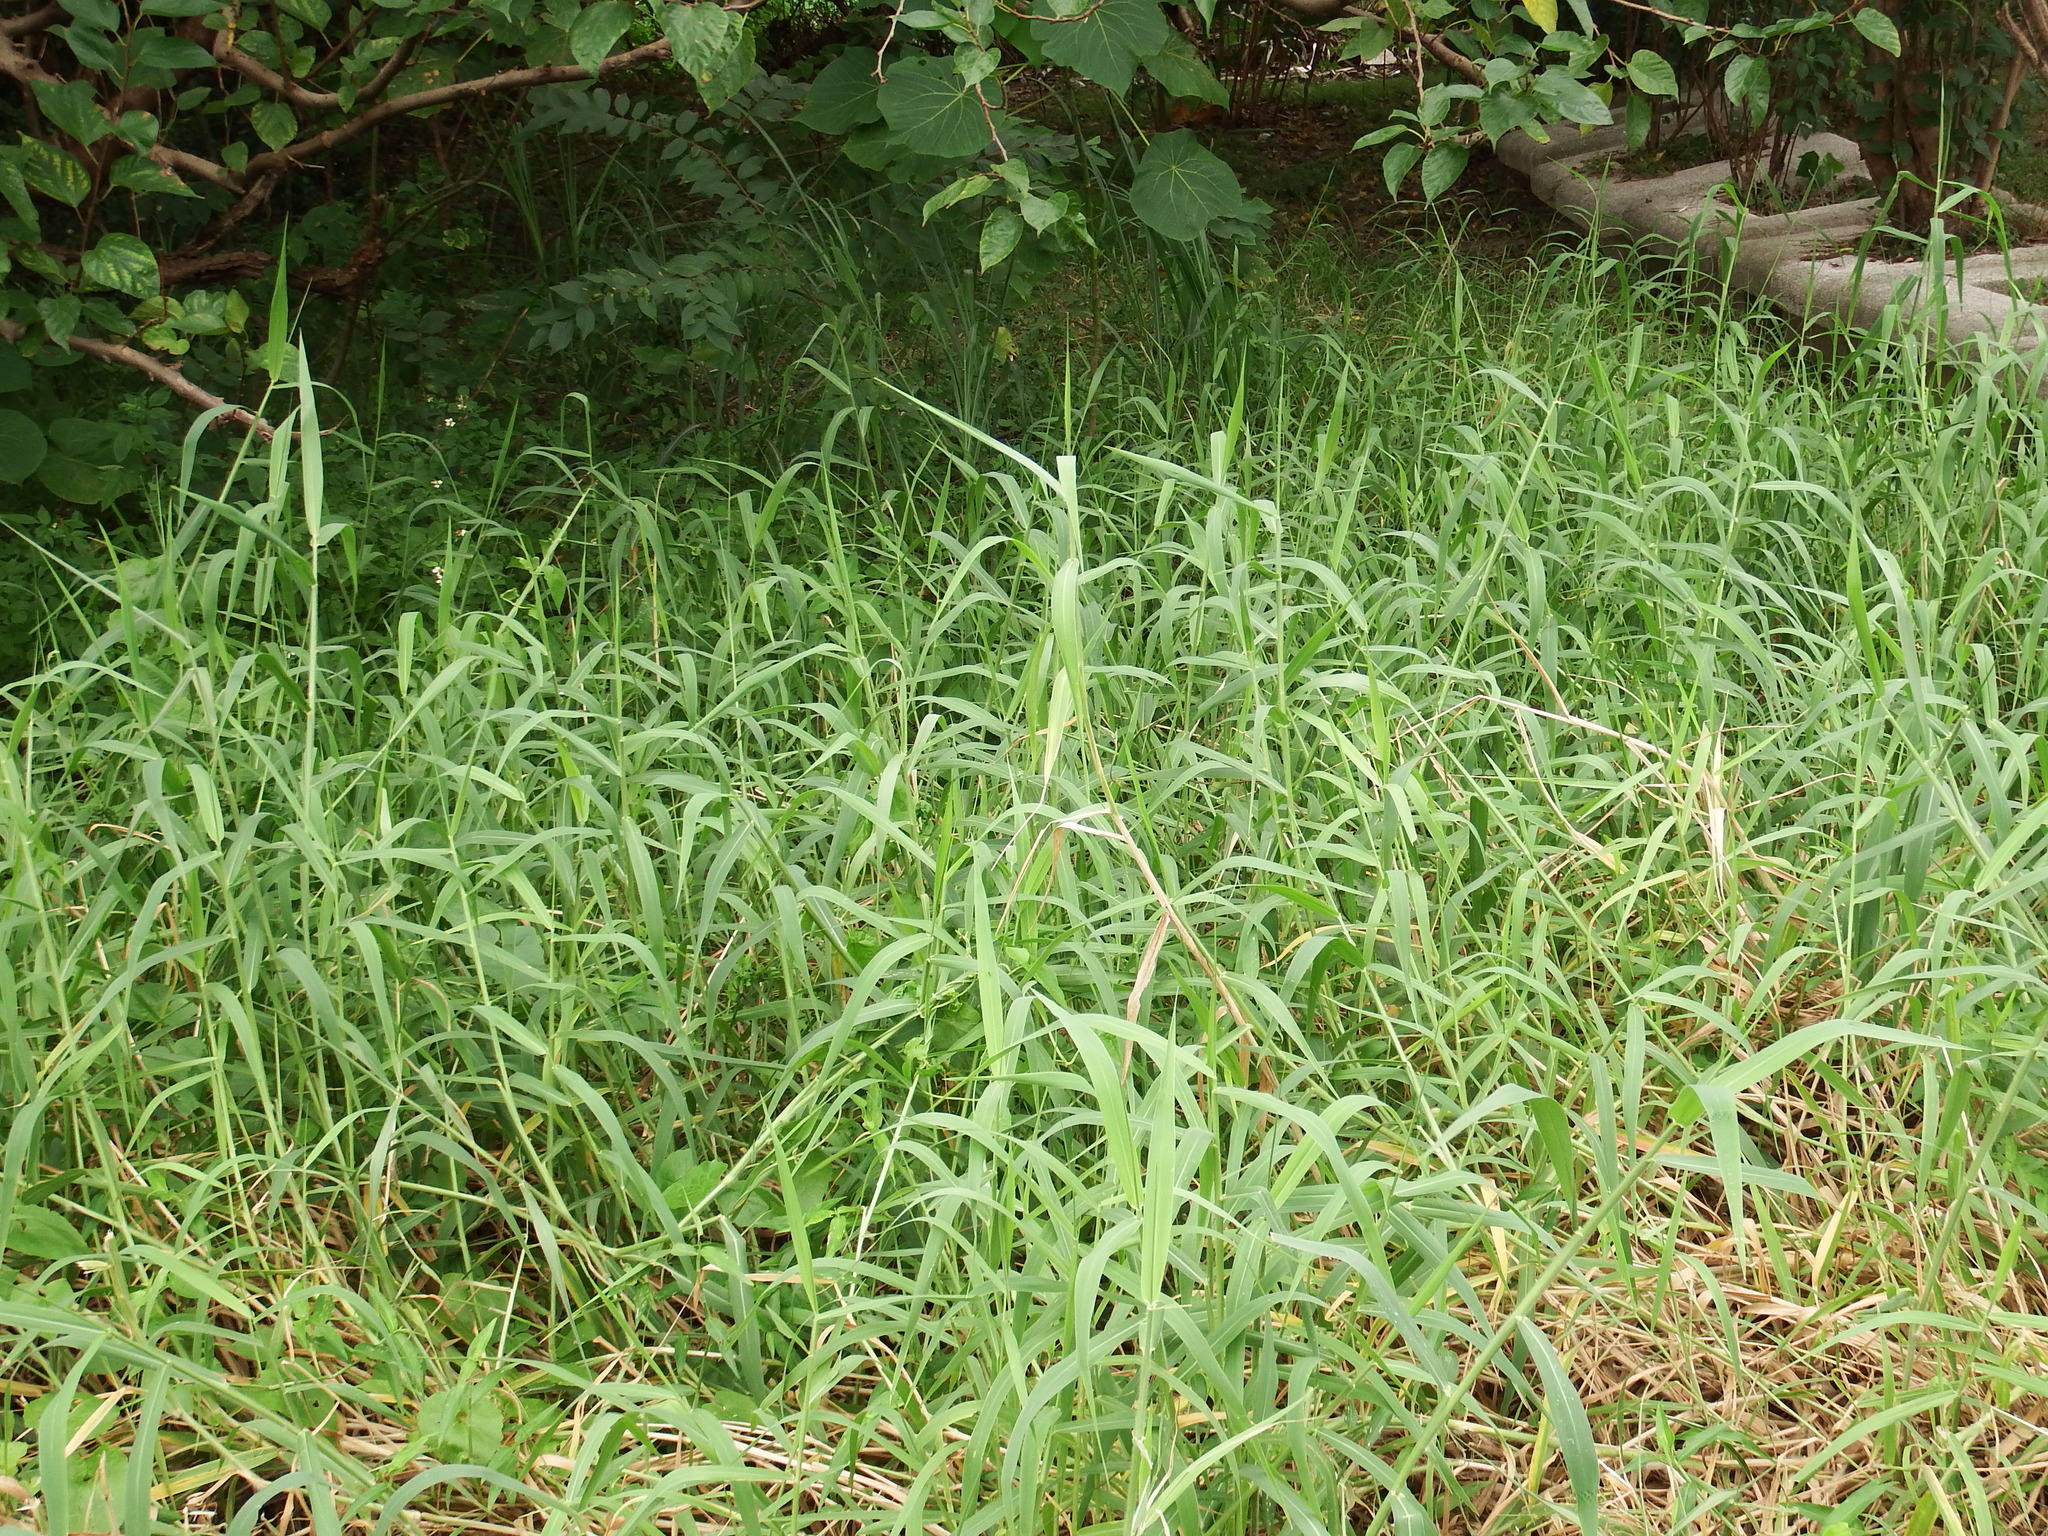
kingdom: Plantae
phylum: Tracheophyta
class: Liliopsida
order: Poales
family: Poaceae
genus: Urochloa
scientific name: Urochloa mutica
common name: Para grass
